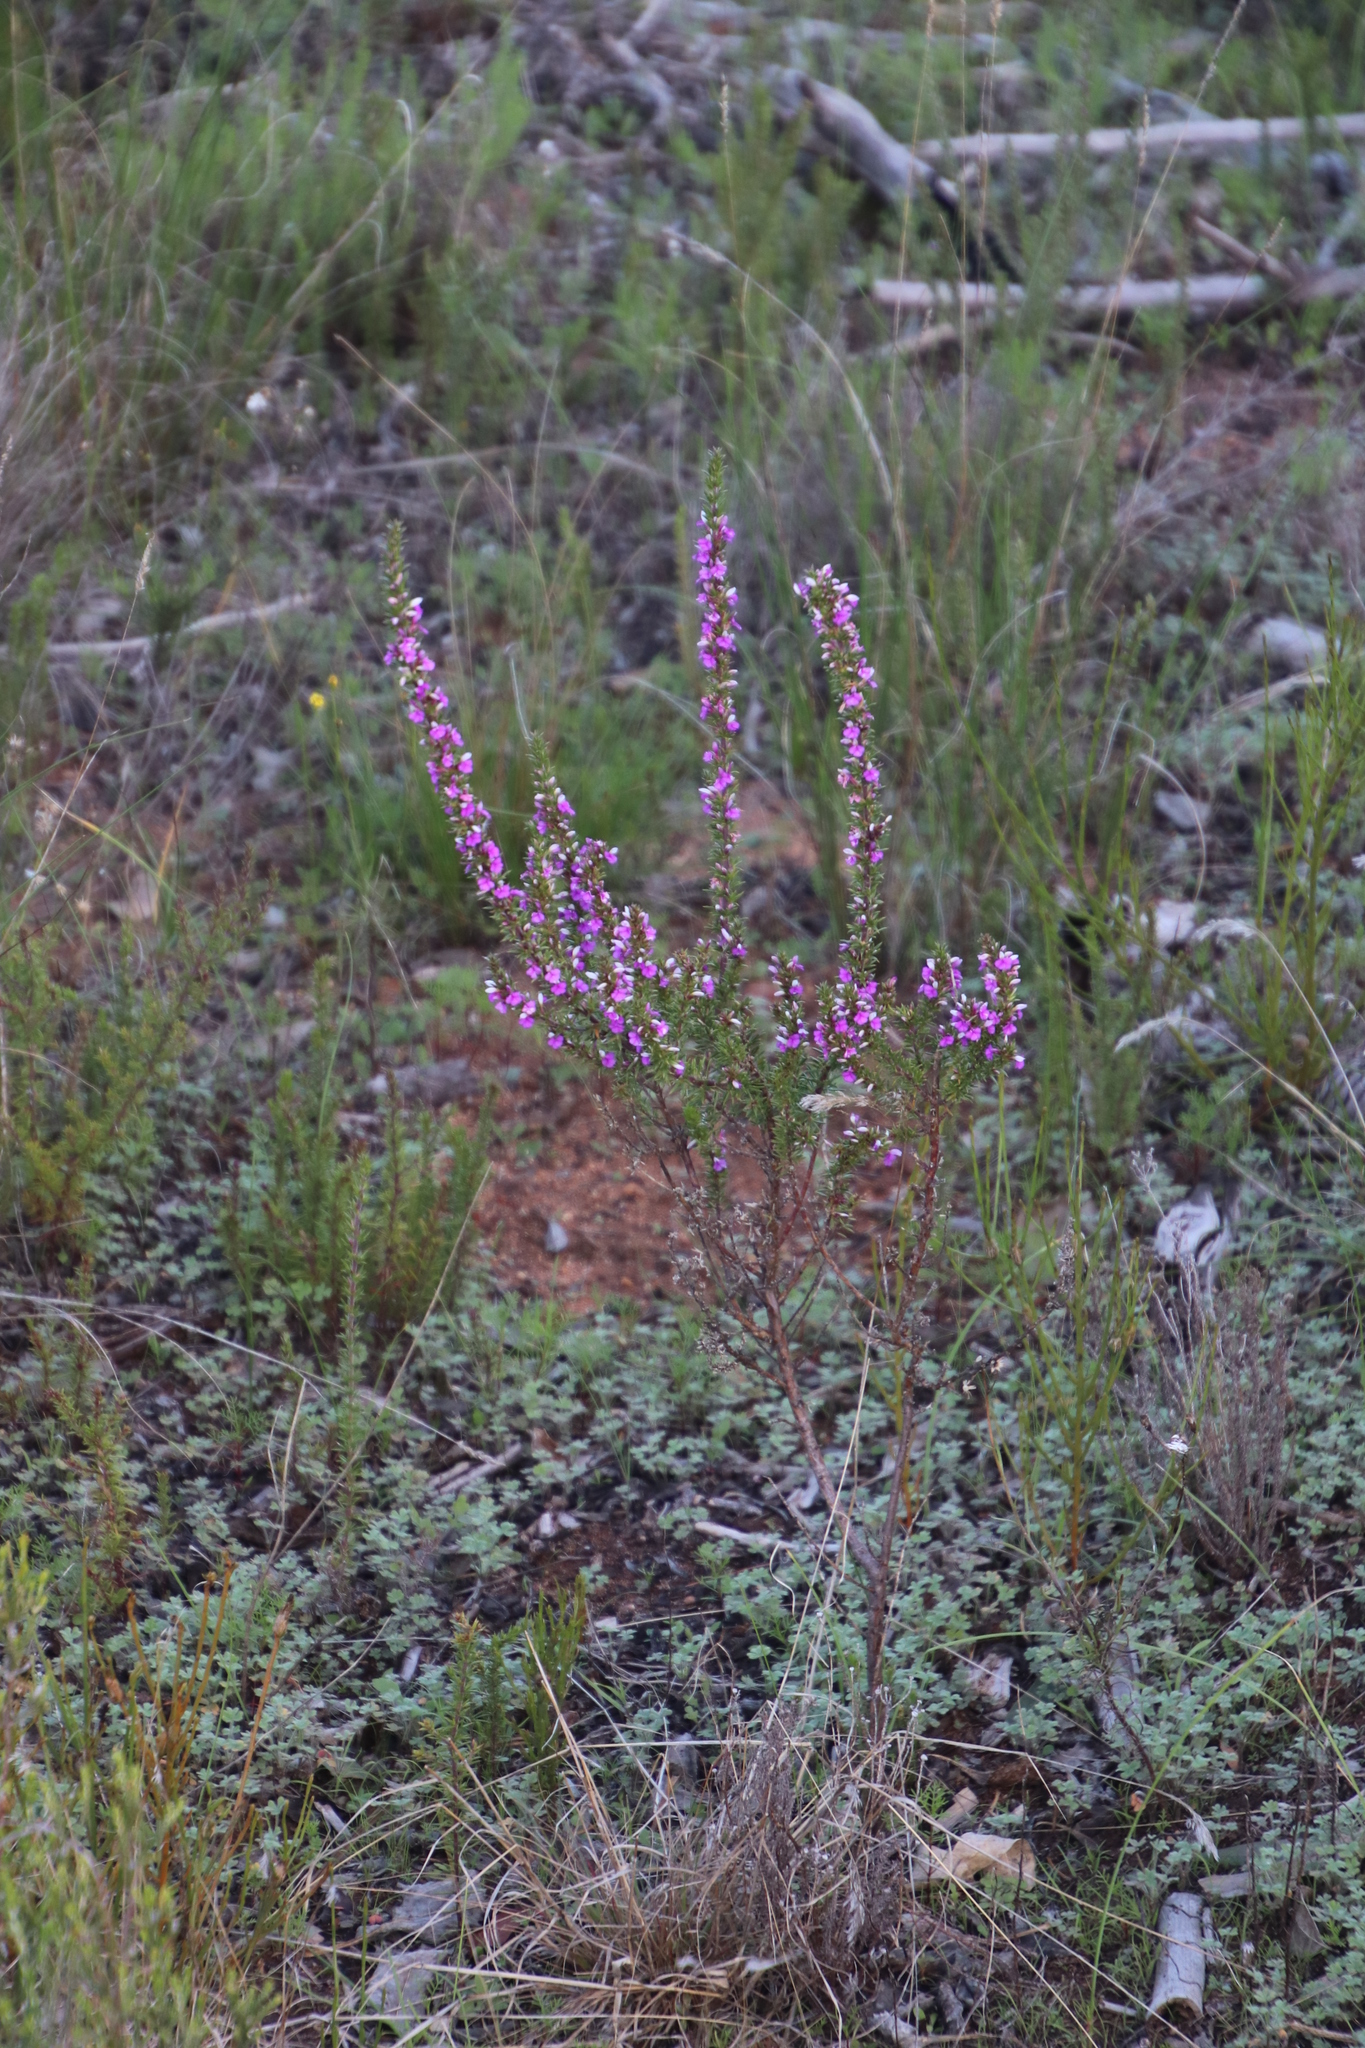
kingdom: Plantae
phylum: Tracheophyta
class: Magnoliopsida
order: Fabales
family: Polygalaceae
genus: Muraltia
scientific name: Muraltia heisteria
